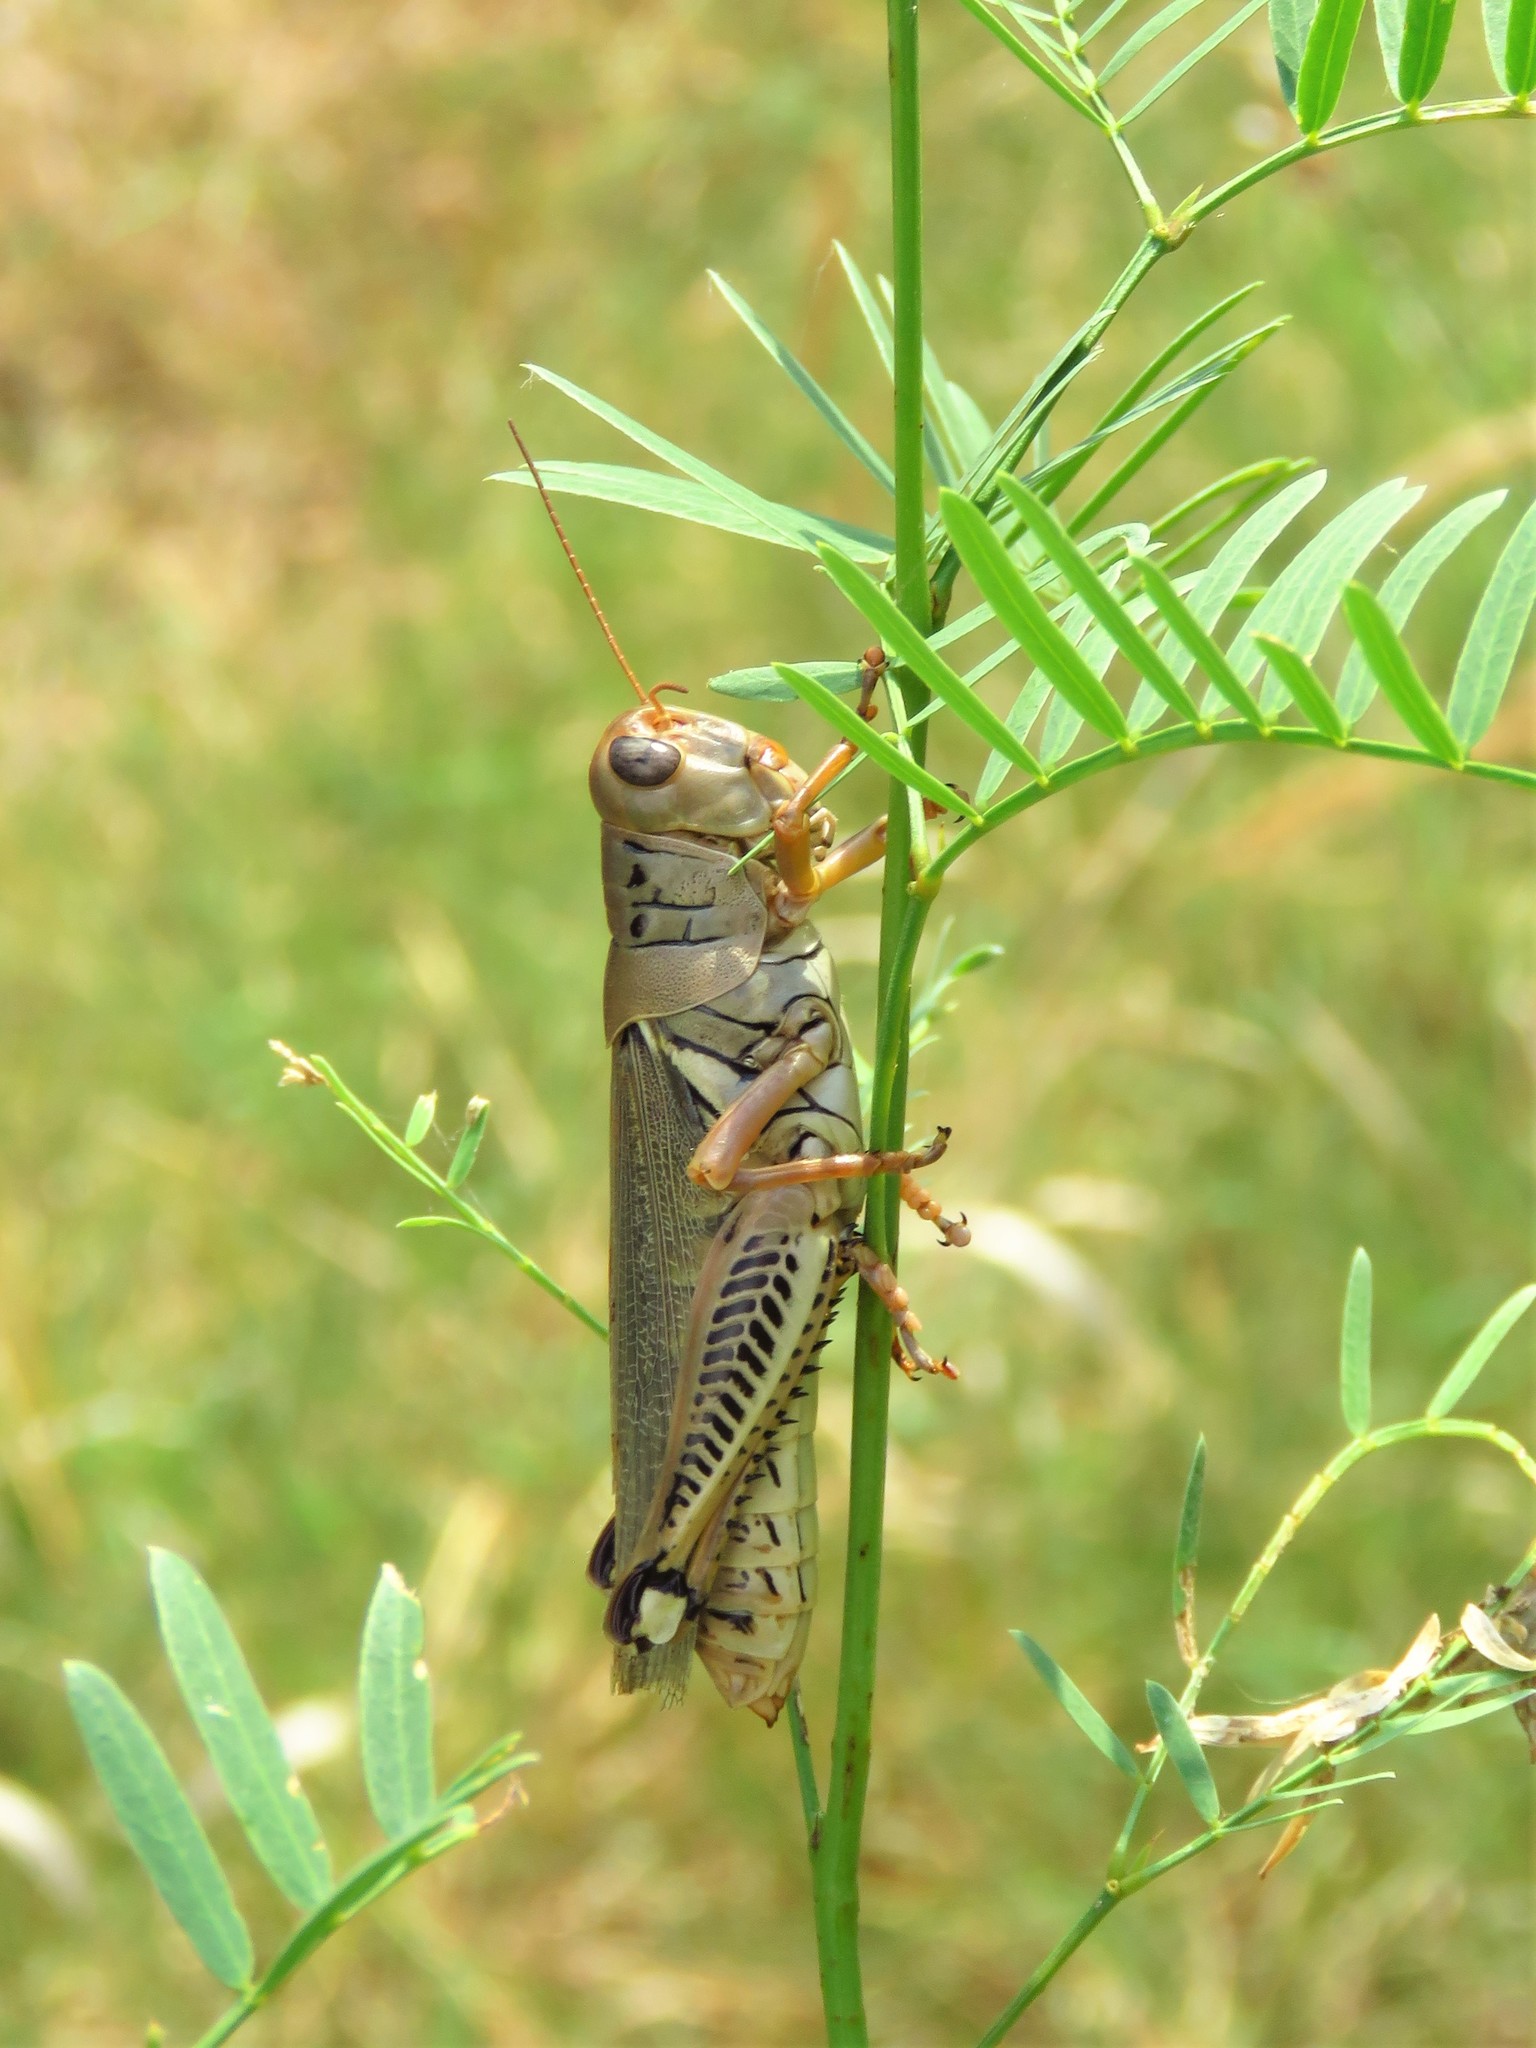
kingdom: Animalia
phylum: Arthropoda
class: Insecta
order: Orthoptera
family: Acrididae
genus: Melanoplus
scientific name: Melanoplus differentialis
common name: Differential grasshopper
